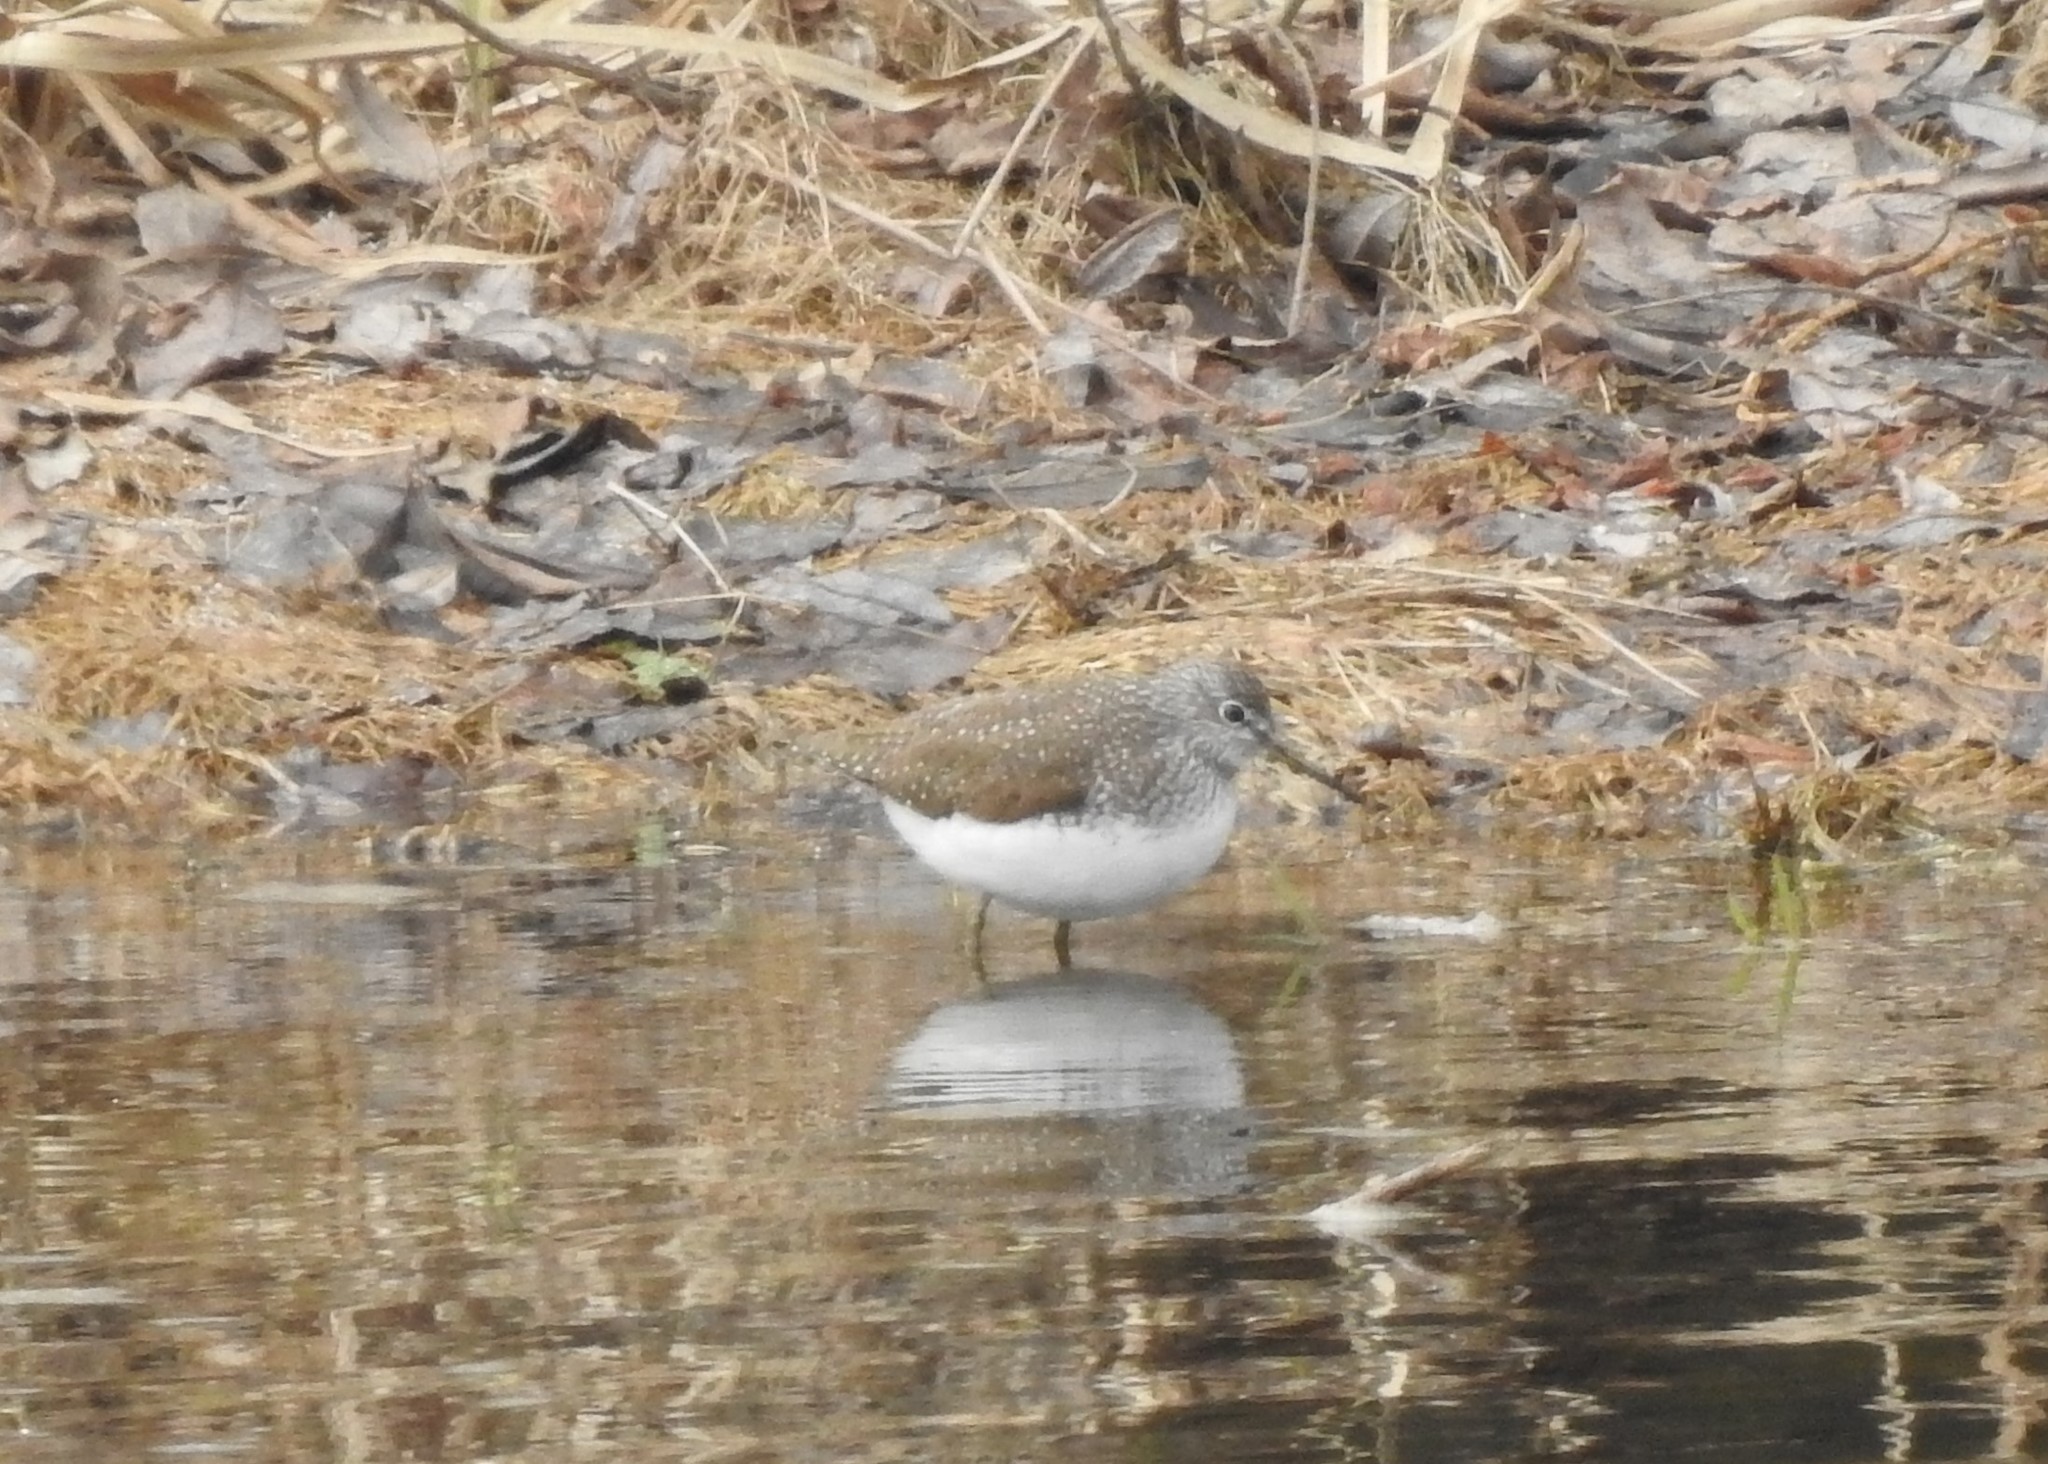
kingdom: Animalia
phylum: Chordata
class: Aves
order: Charadriiformes
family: Scolopacidae
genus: Tringa
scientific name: Tringa ochropus
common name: Green sandpiper
